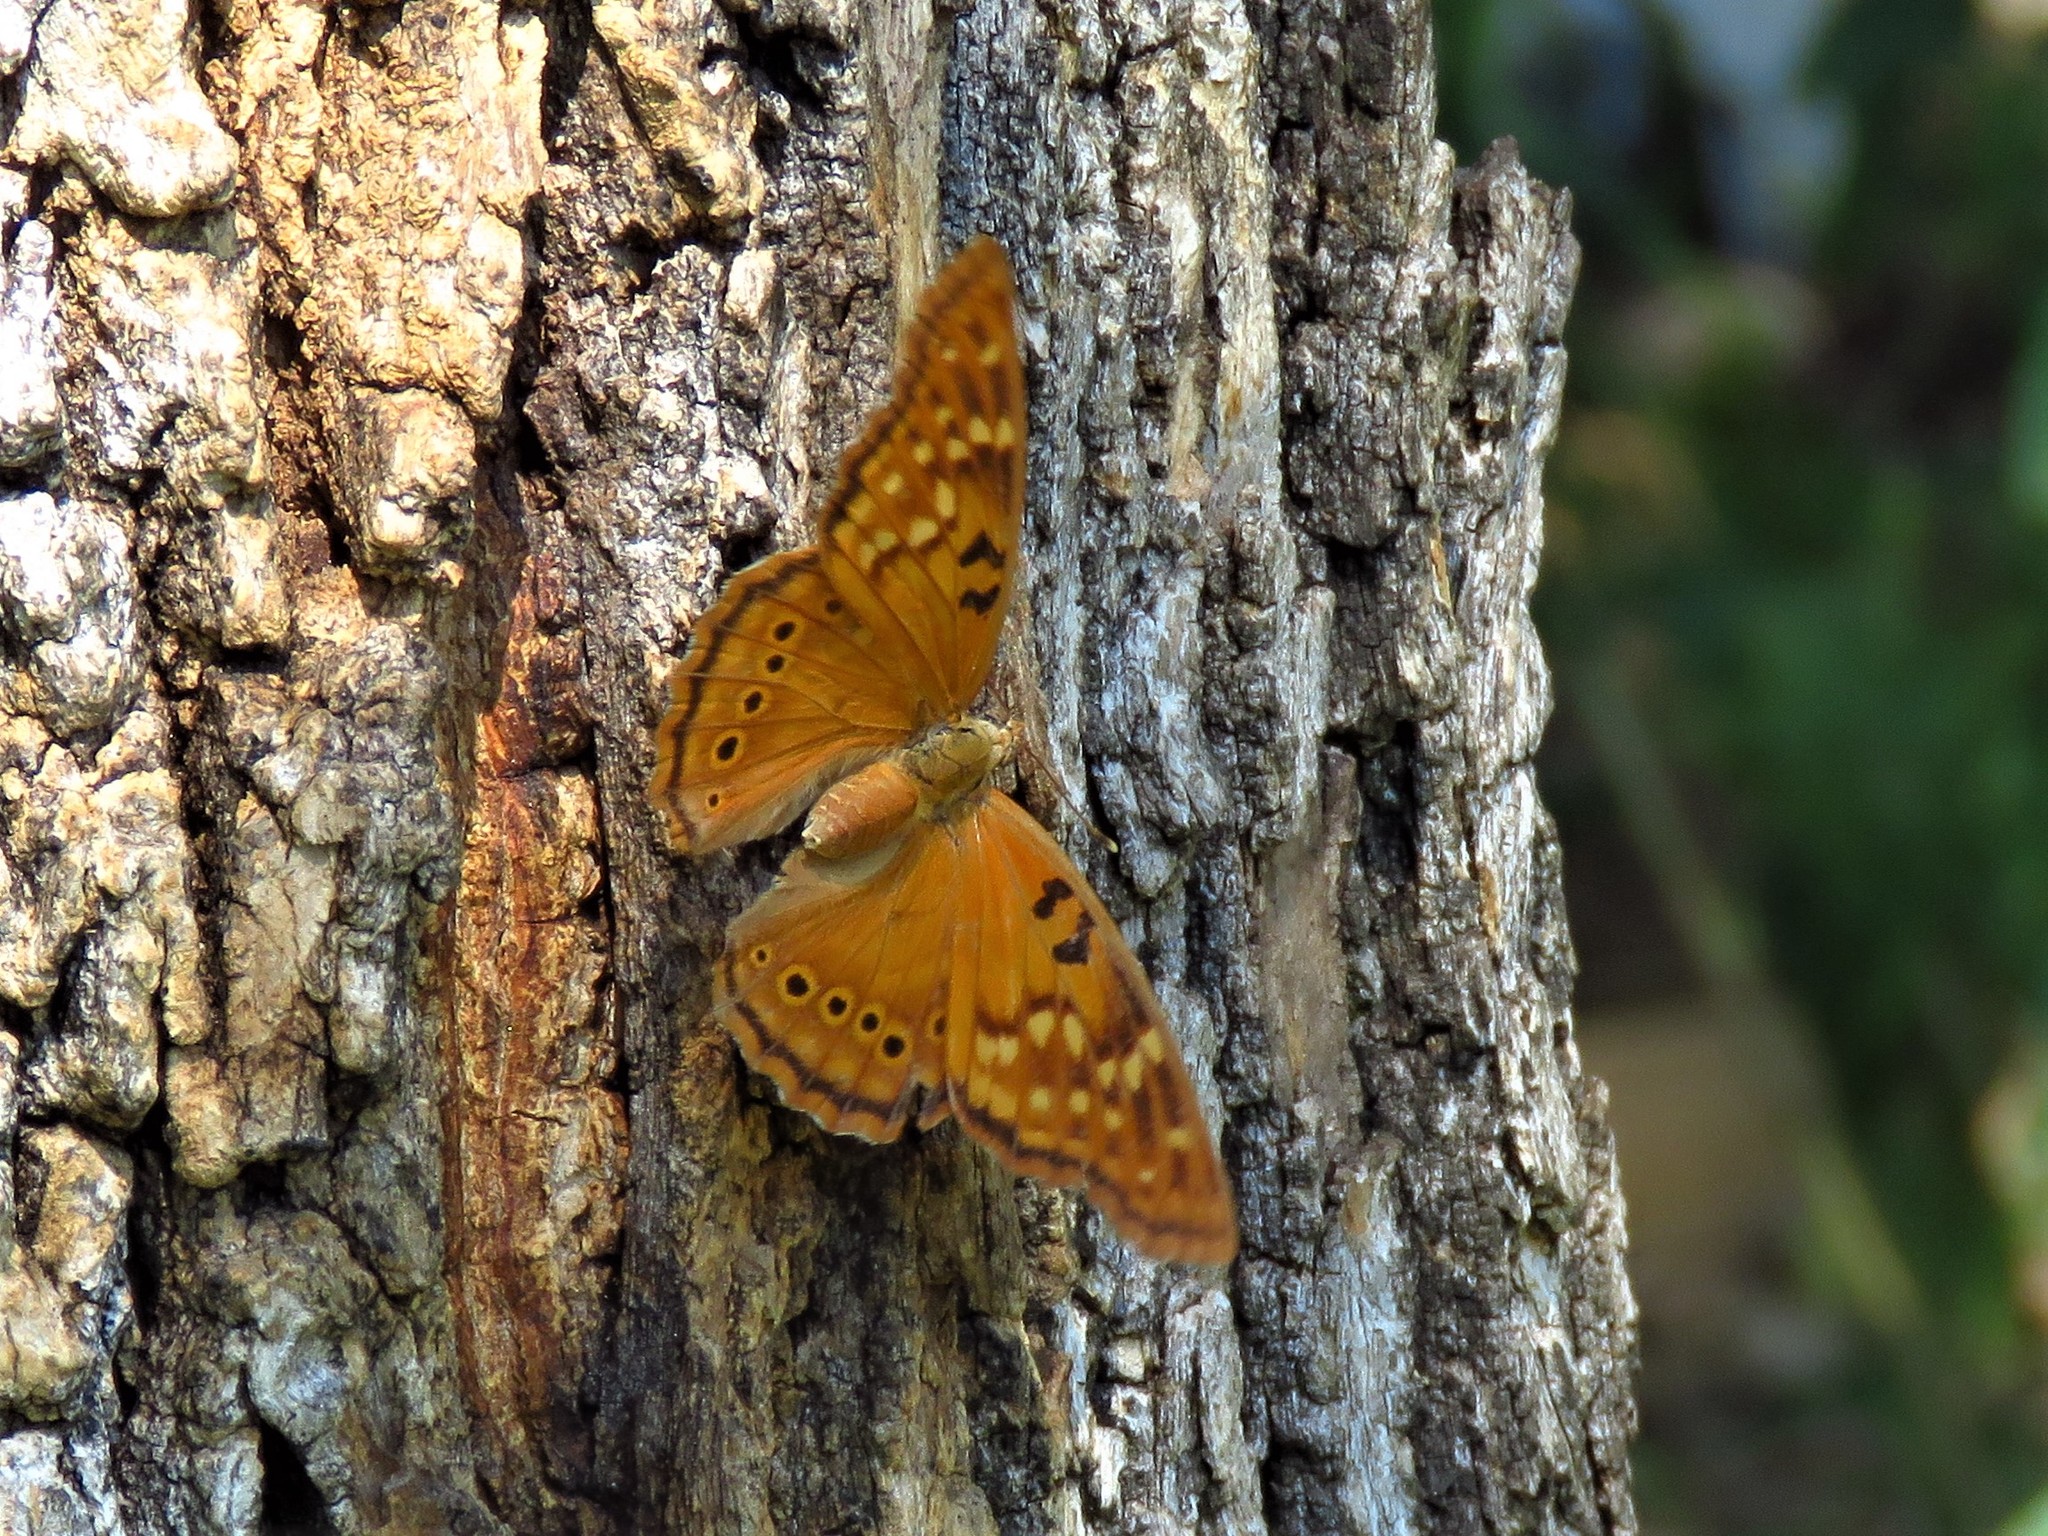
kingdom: Animalia
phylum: Arthropoda
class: Insecta
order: Lepidoptera
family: Nymphalidae
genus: Asterocampa
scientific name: Asterocampa clyton
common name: Tawny emperor
